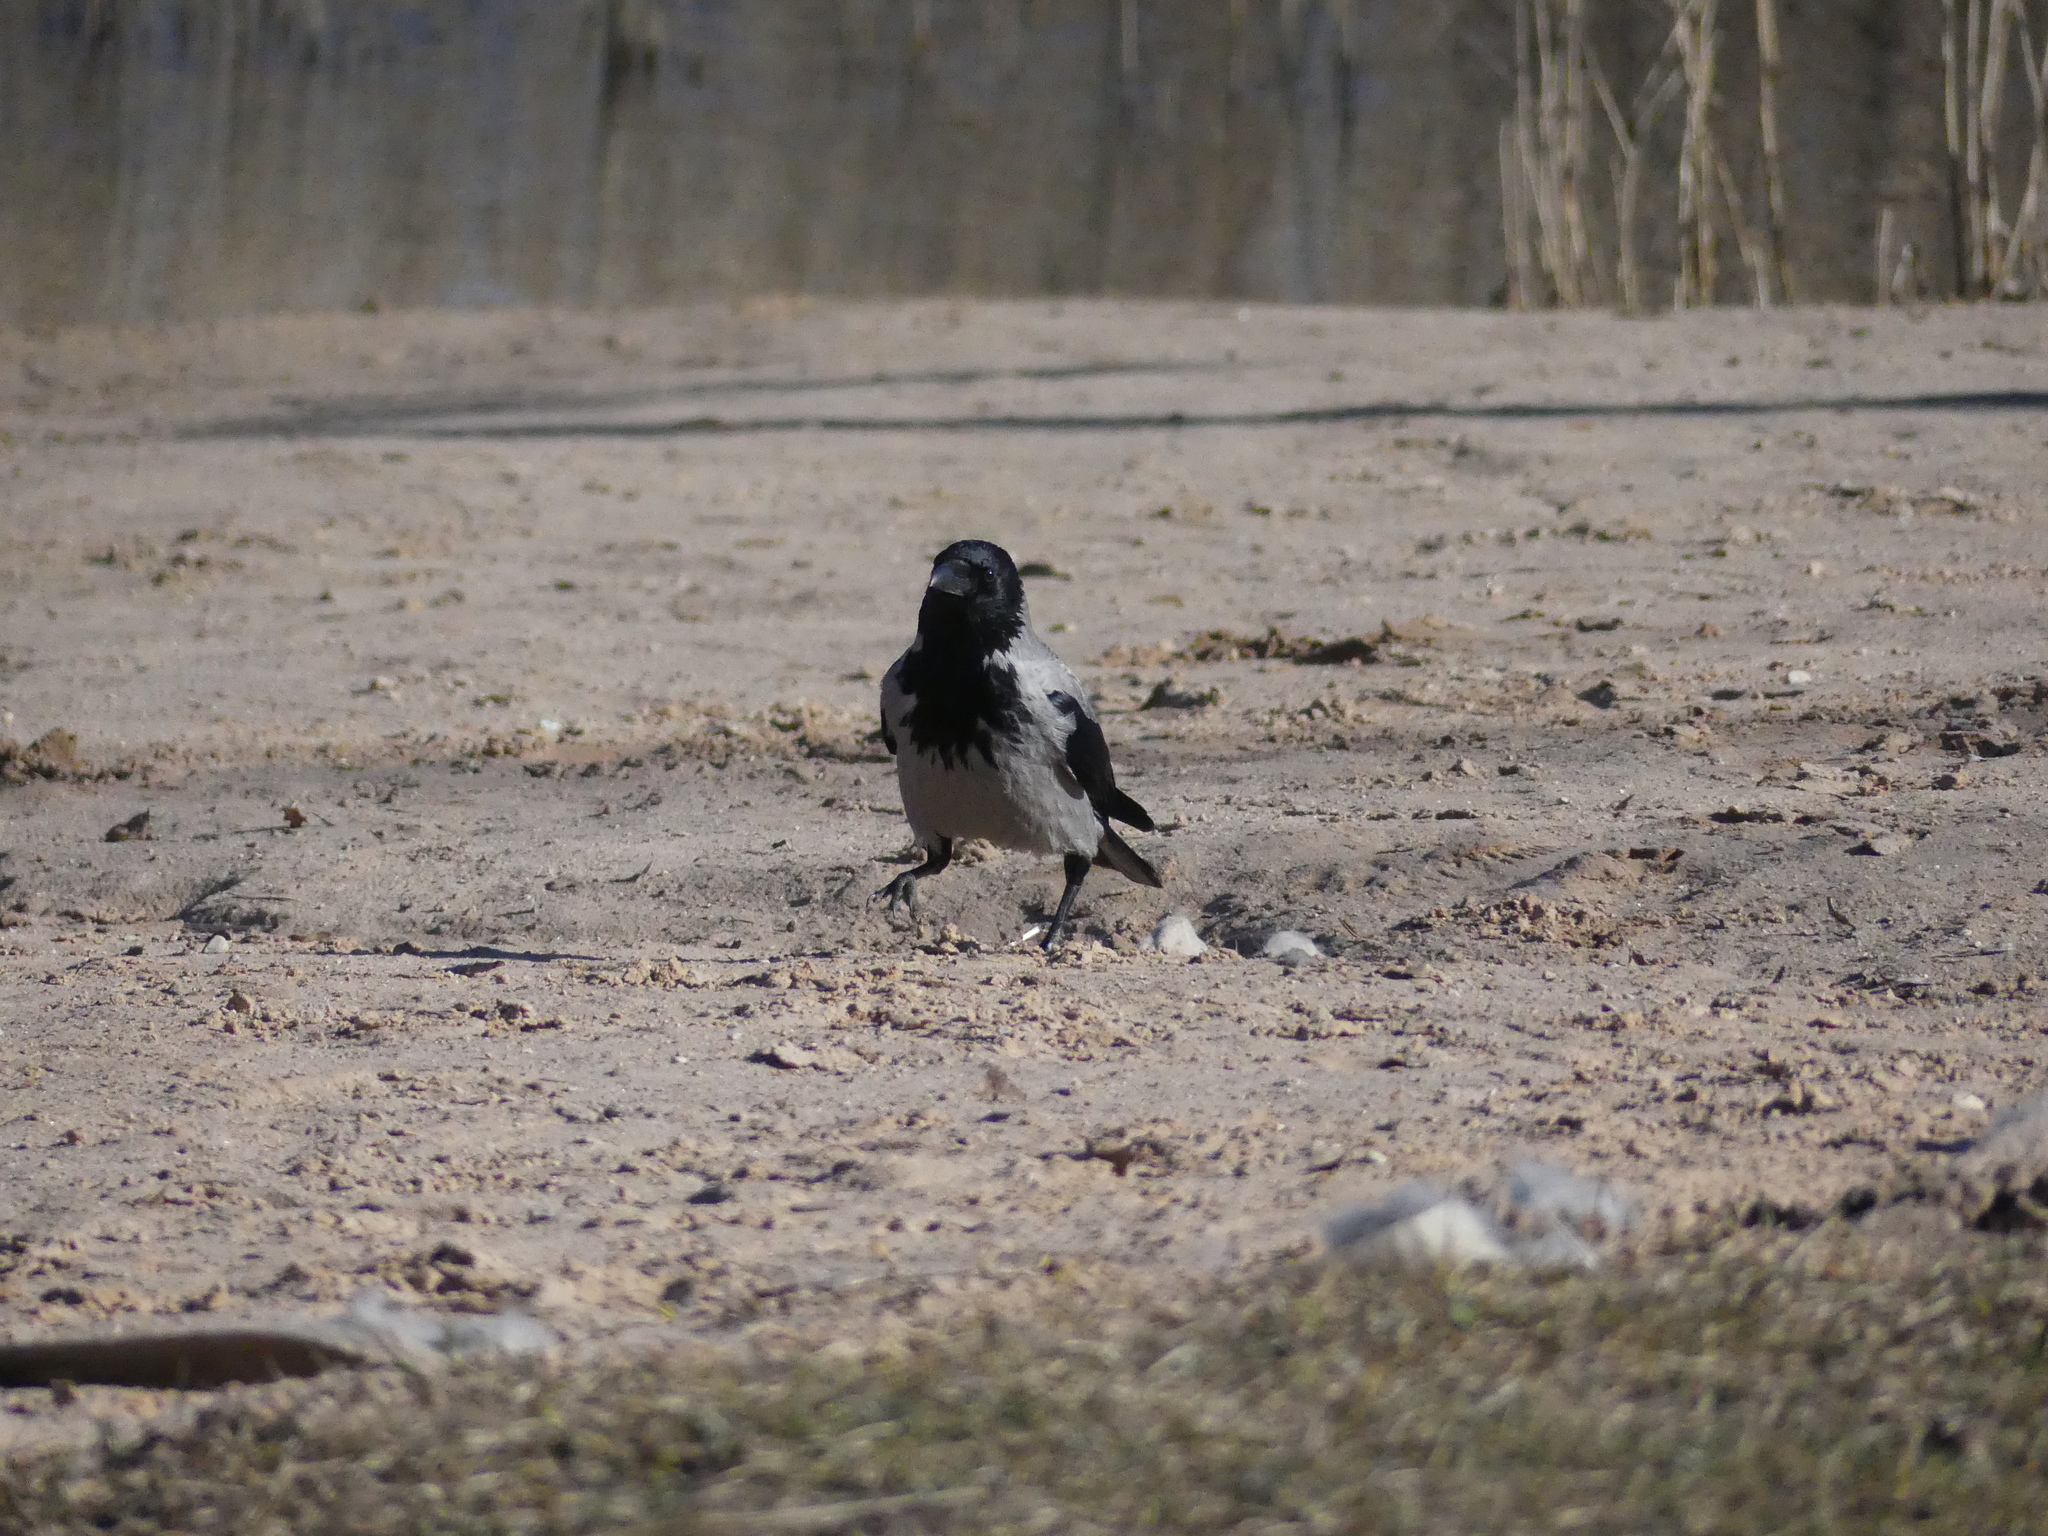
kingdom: Animalia
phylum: Chordata
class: Aves
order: Passeriformes
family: Corvidae
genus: Corvus
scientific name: Corvus cornix
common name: Hooded crow
